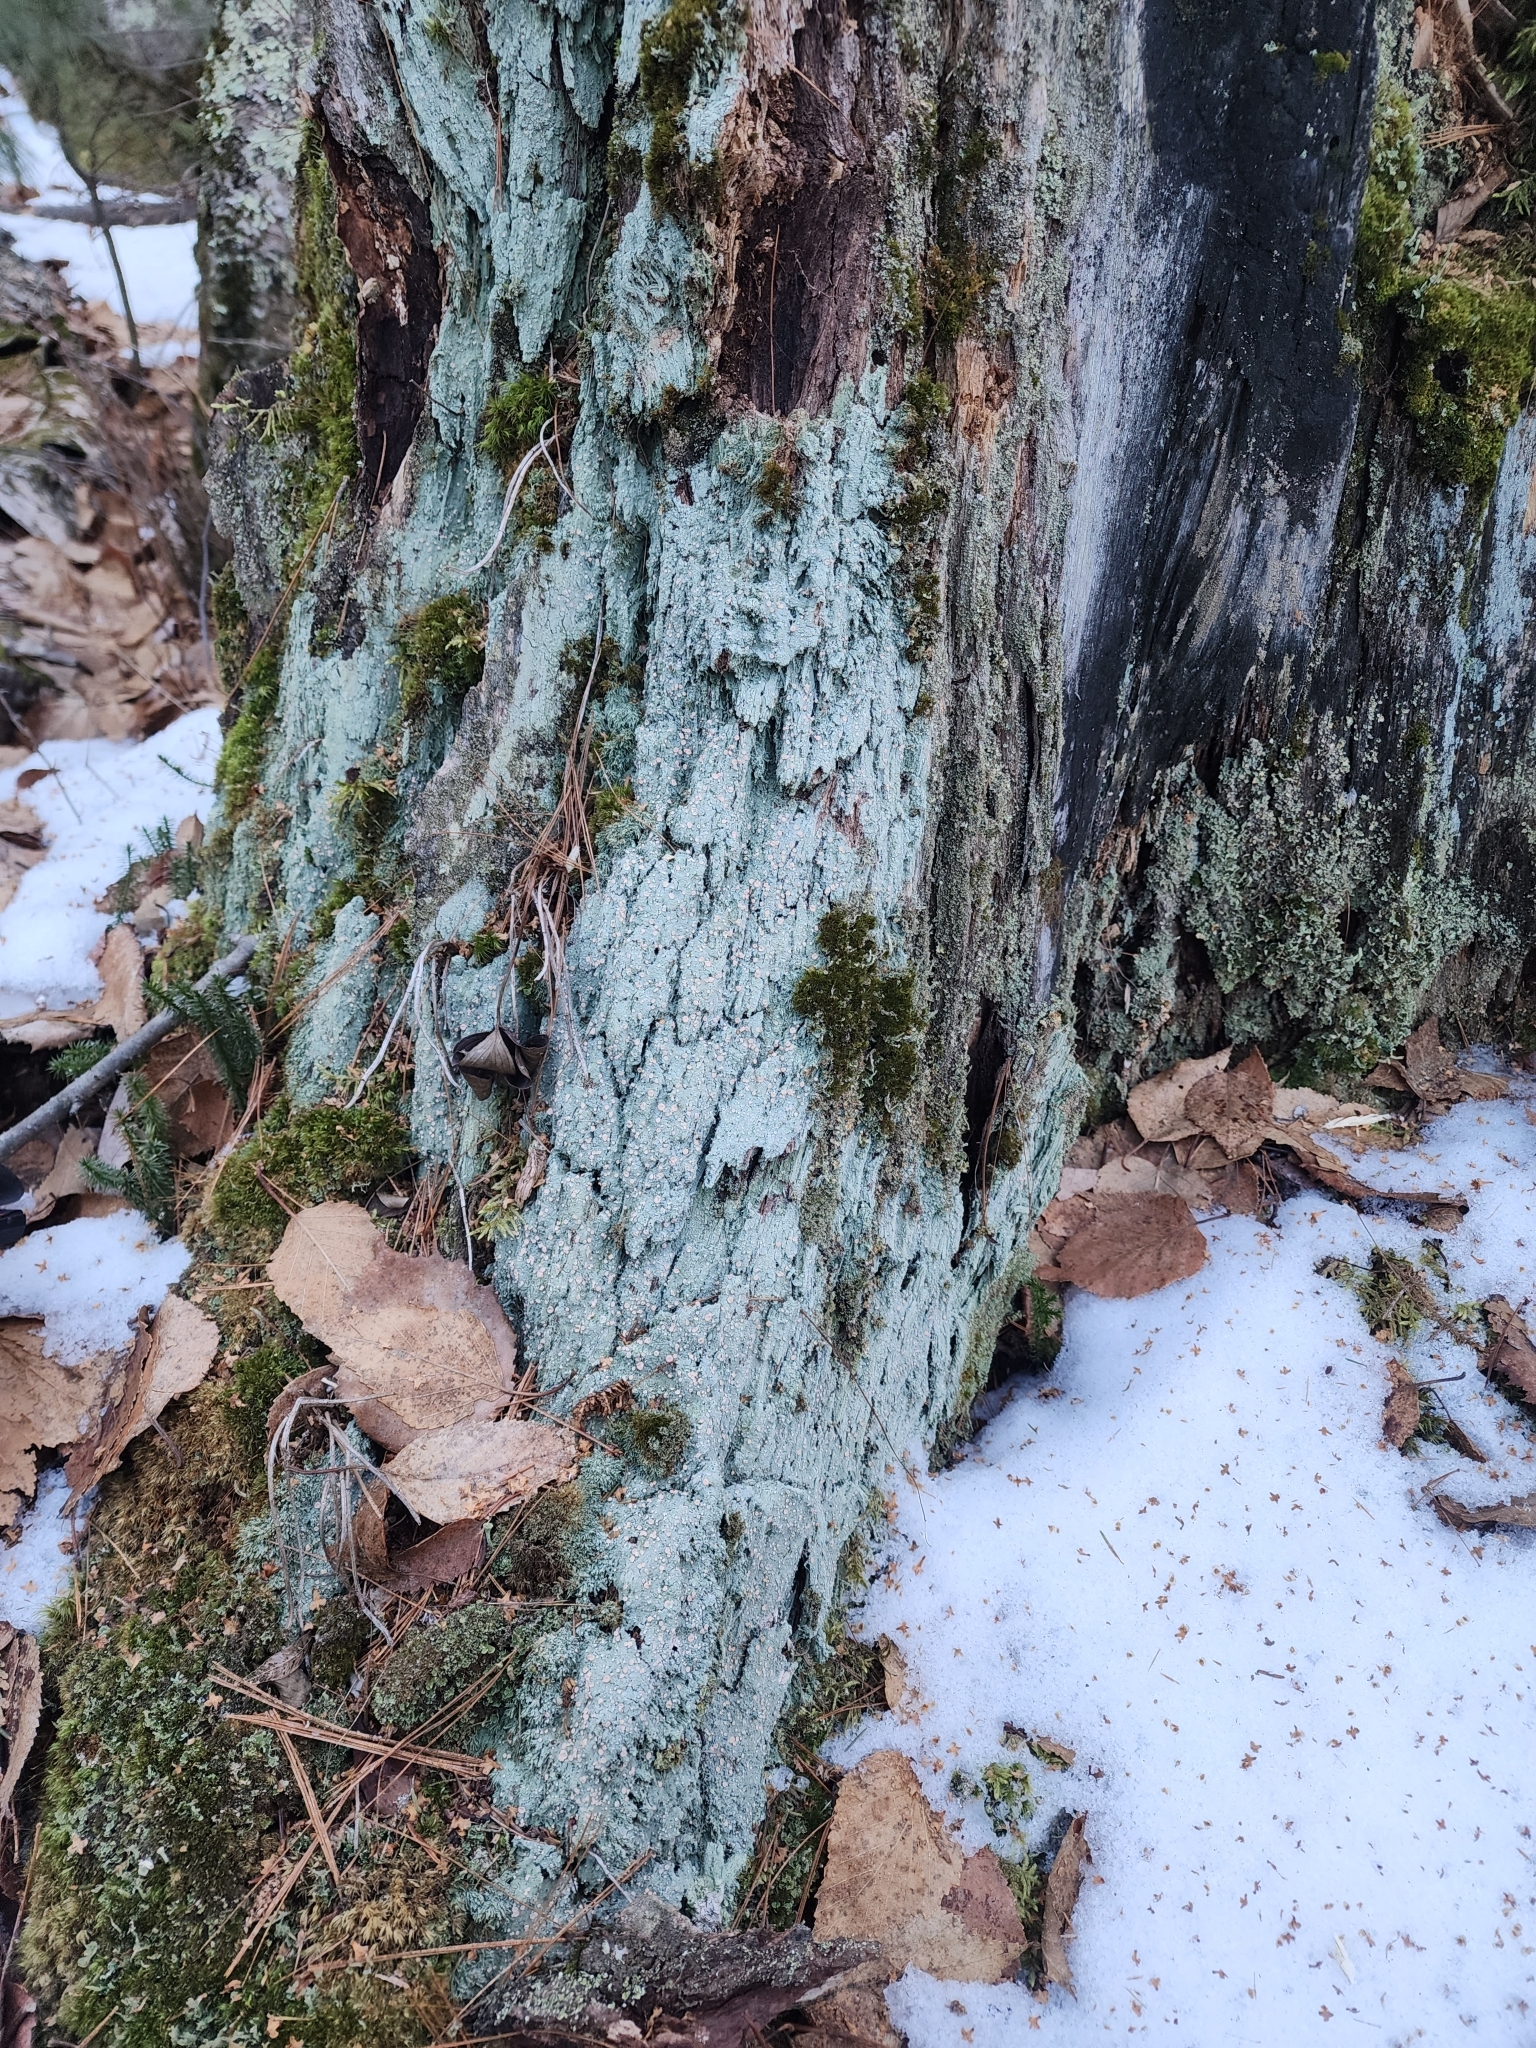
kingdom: Fungi
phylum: Ascomycota
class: Lecanoromycetes
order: Pertusariales
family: Icmadophilaceae
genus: Icmadophila
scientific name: Icmadophila ericetorum
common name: Candy lichen
